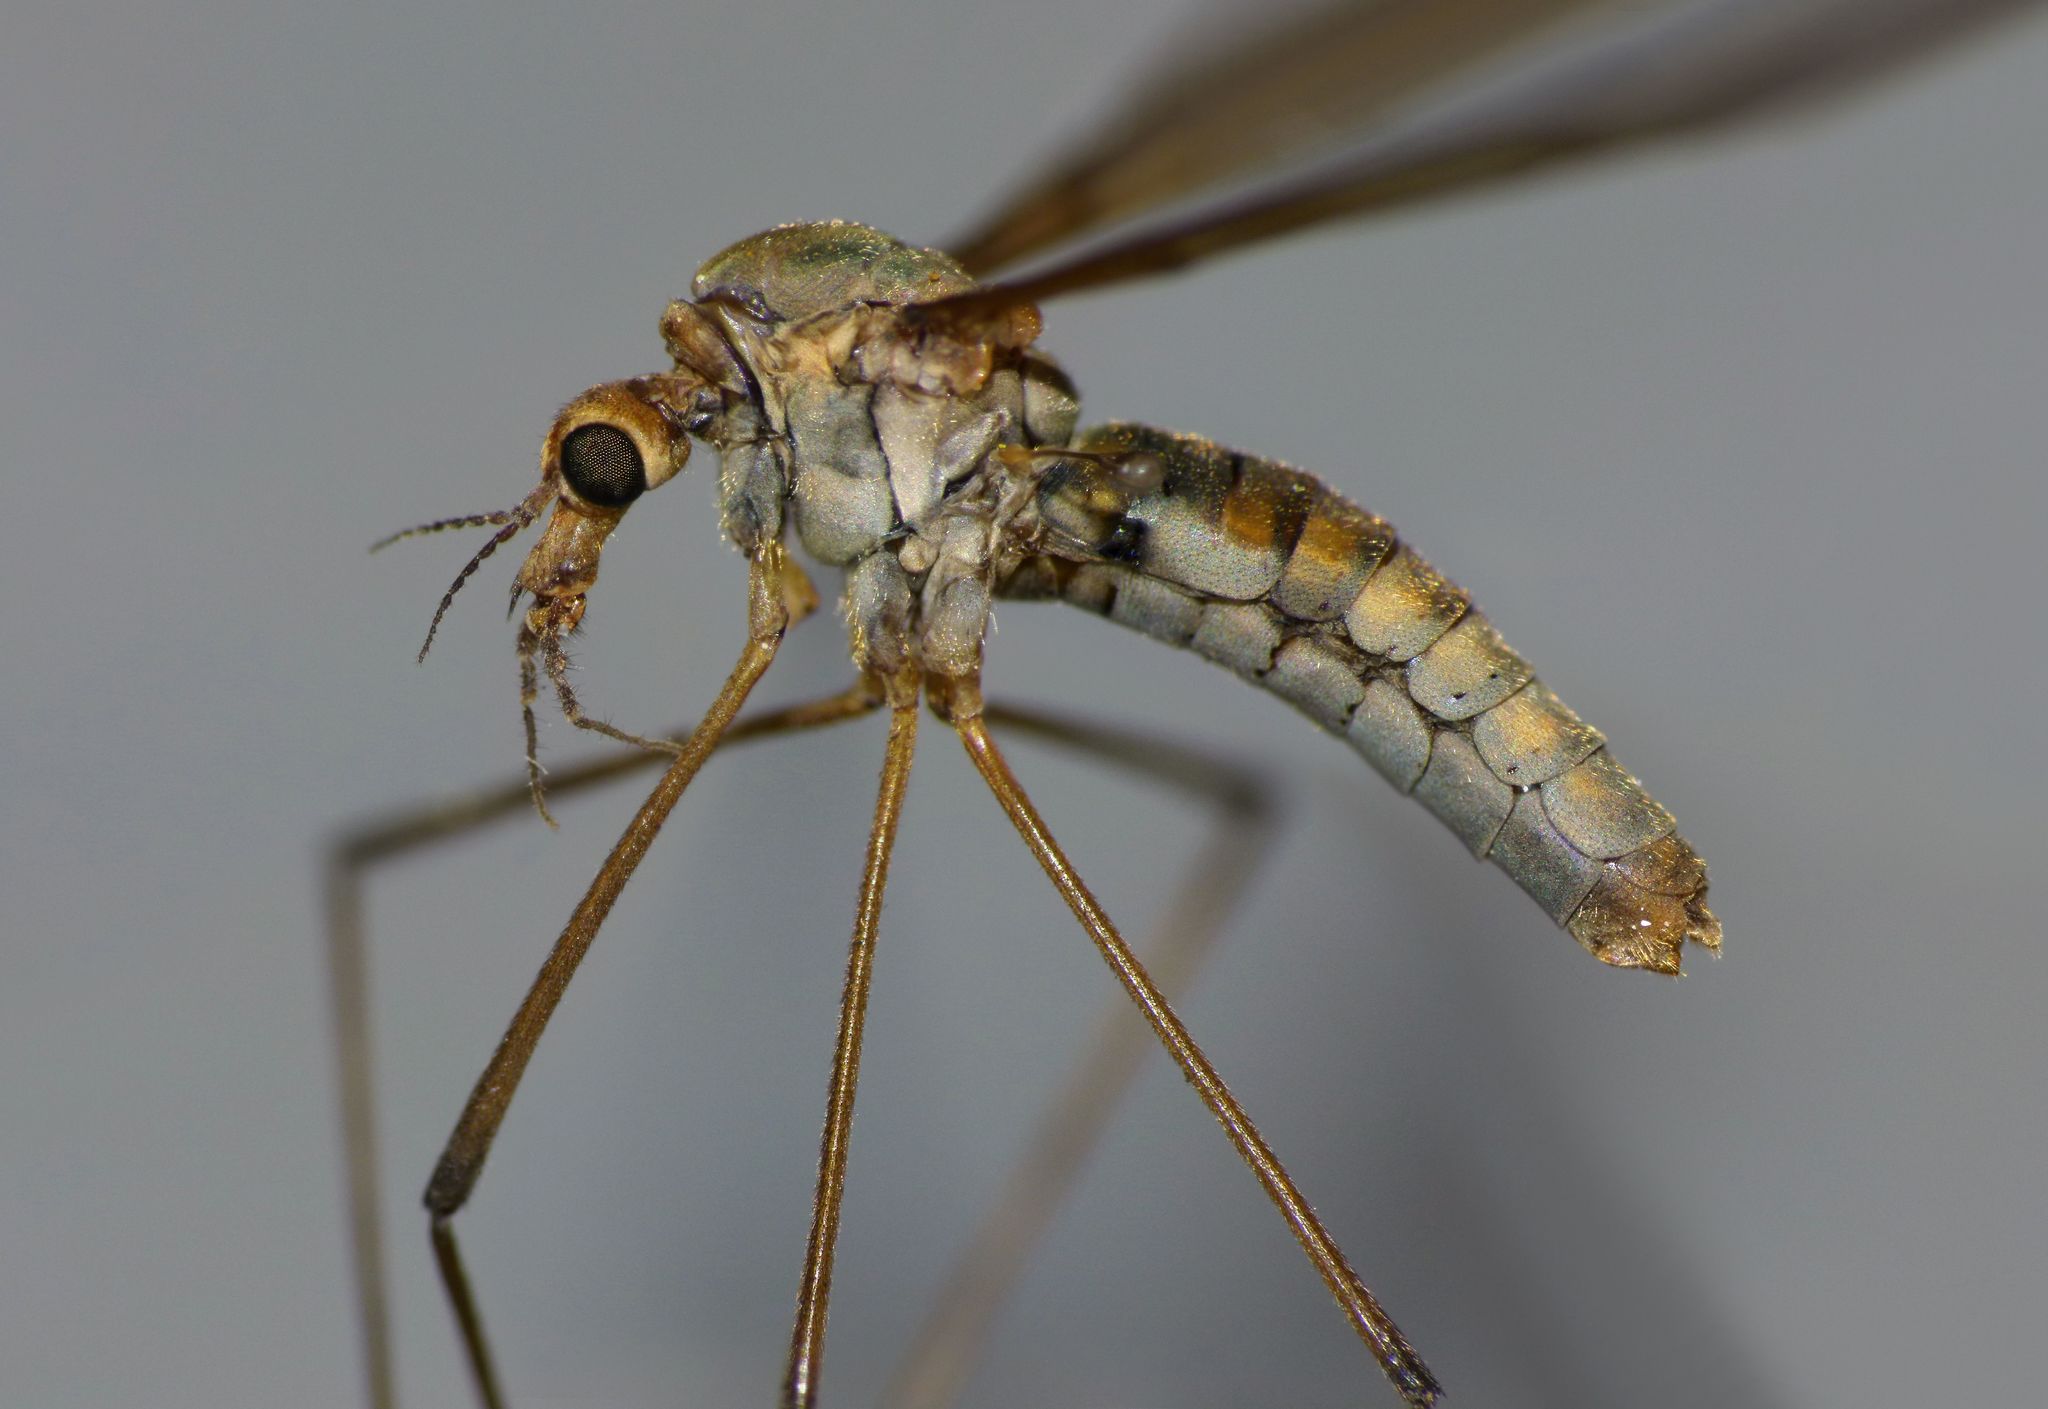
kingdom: Animalia
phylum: Arthropoda
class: Insecta
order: Diptera
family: Tipulidae
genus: Leptotarsus
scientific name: Leptotarsus zeylandiae
